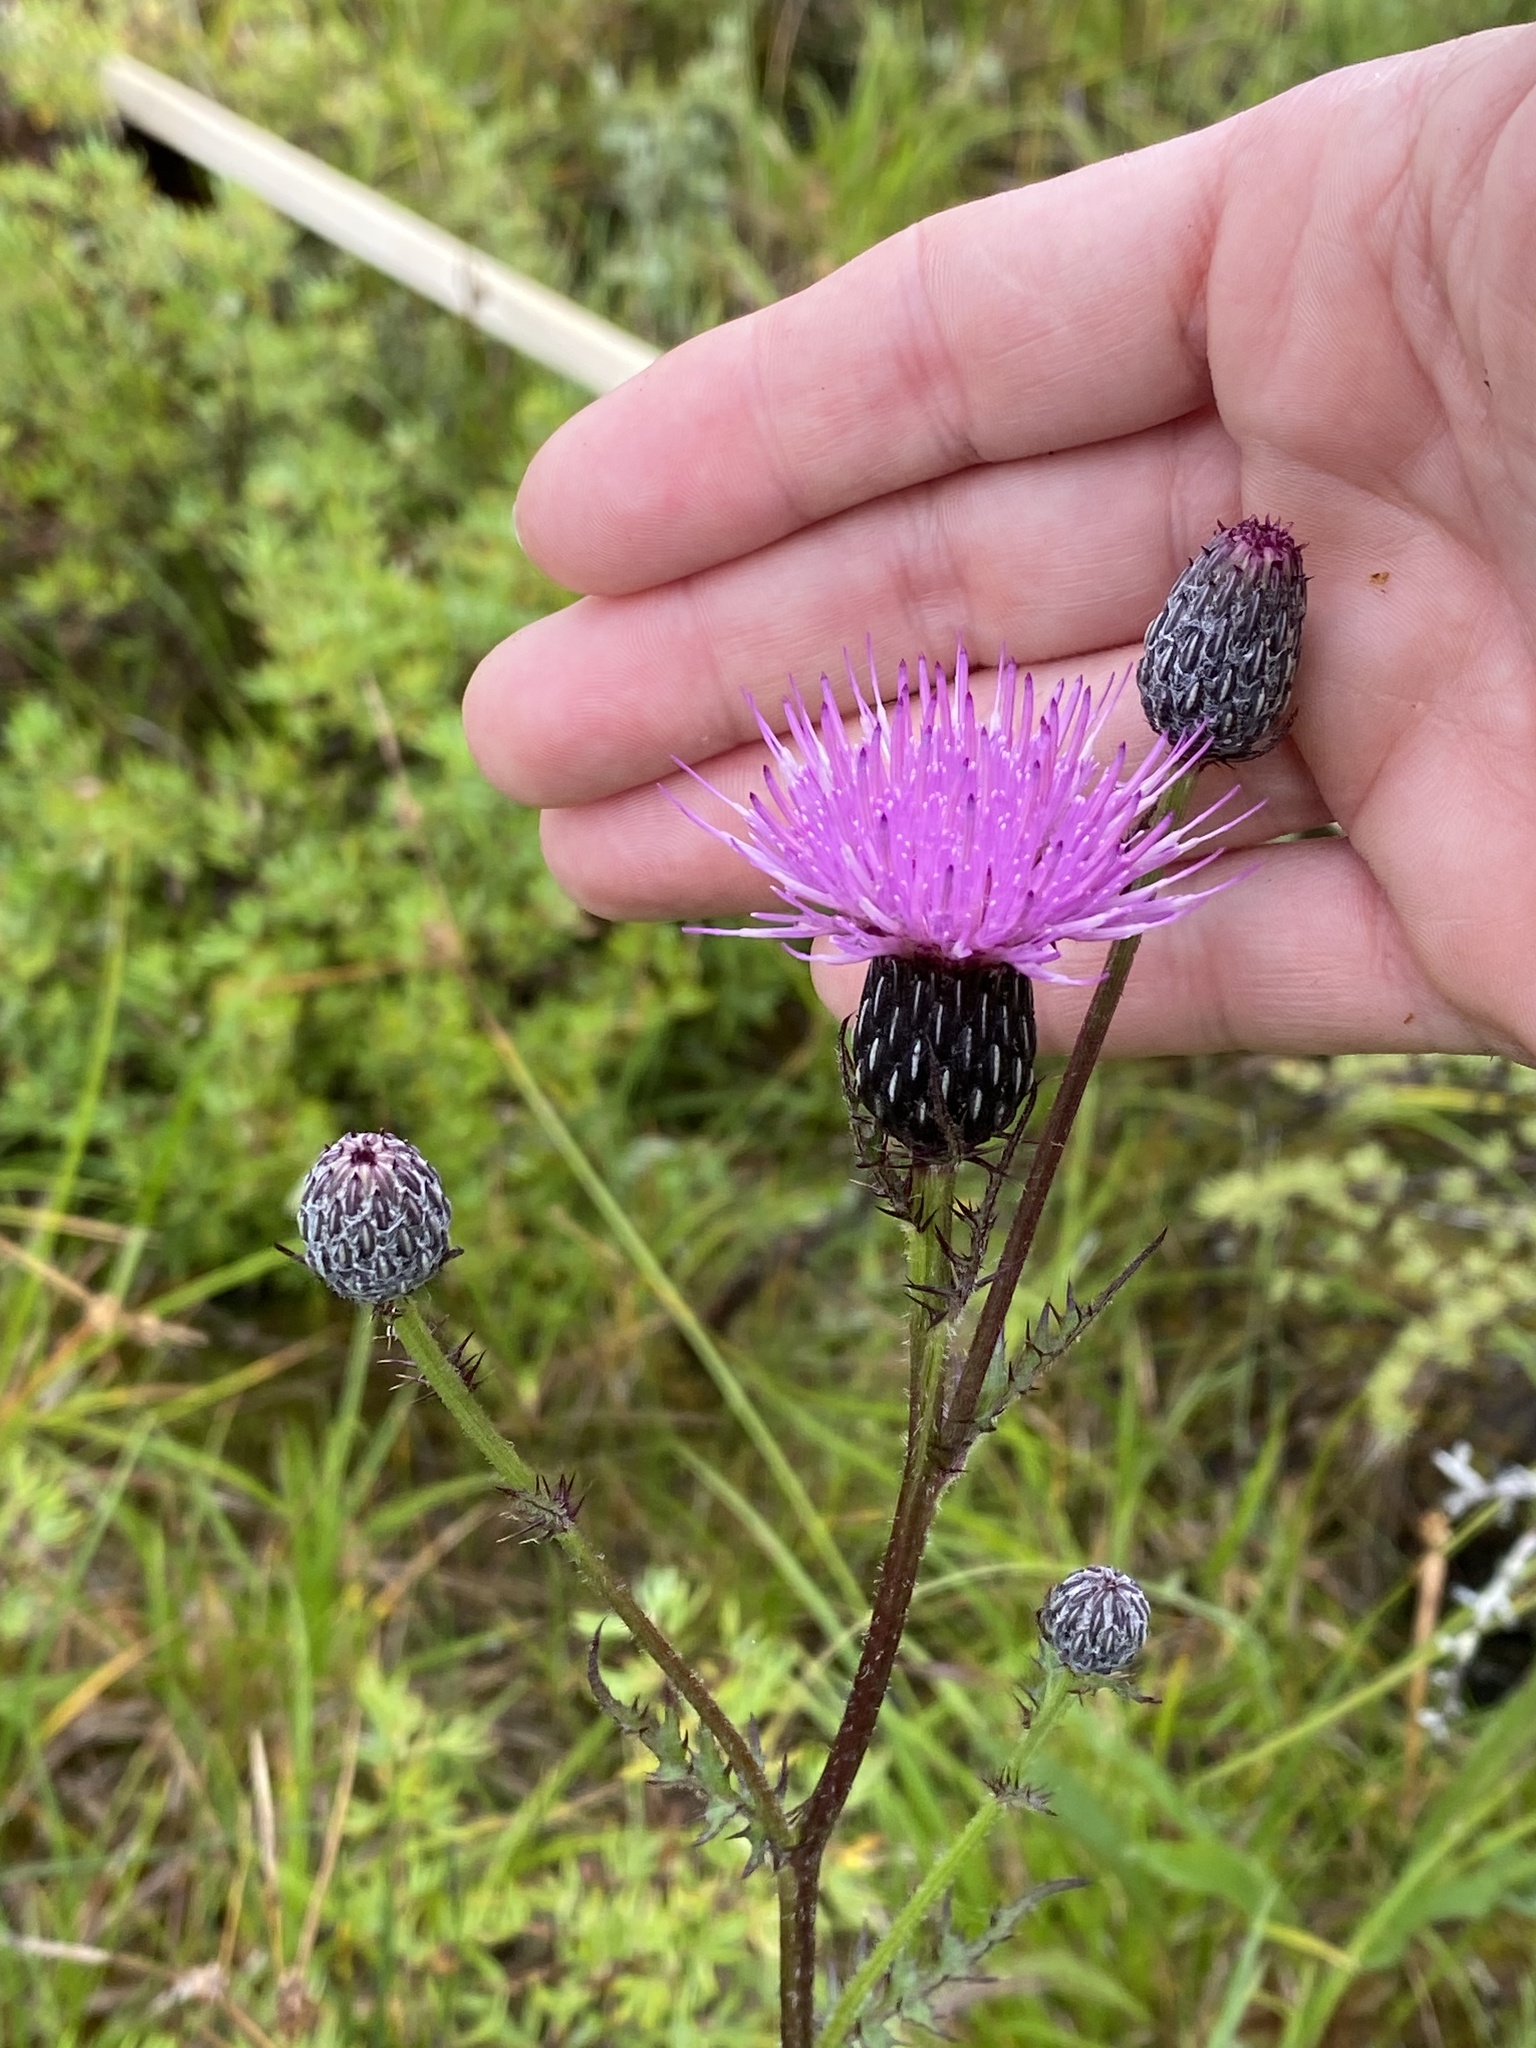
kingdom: Plantae
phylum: Tracheophyta
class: Magnoliopsida
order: Asterales
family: Asteraceae
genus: Cirsium
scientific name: Cirsium muticum
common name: Dunce-nettle
